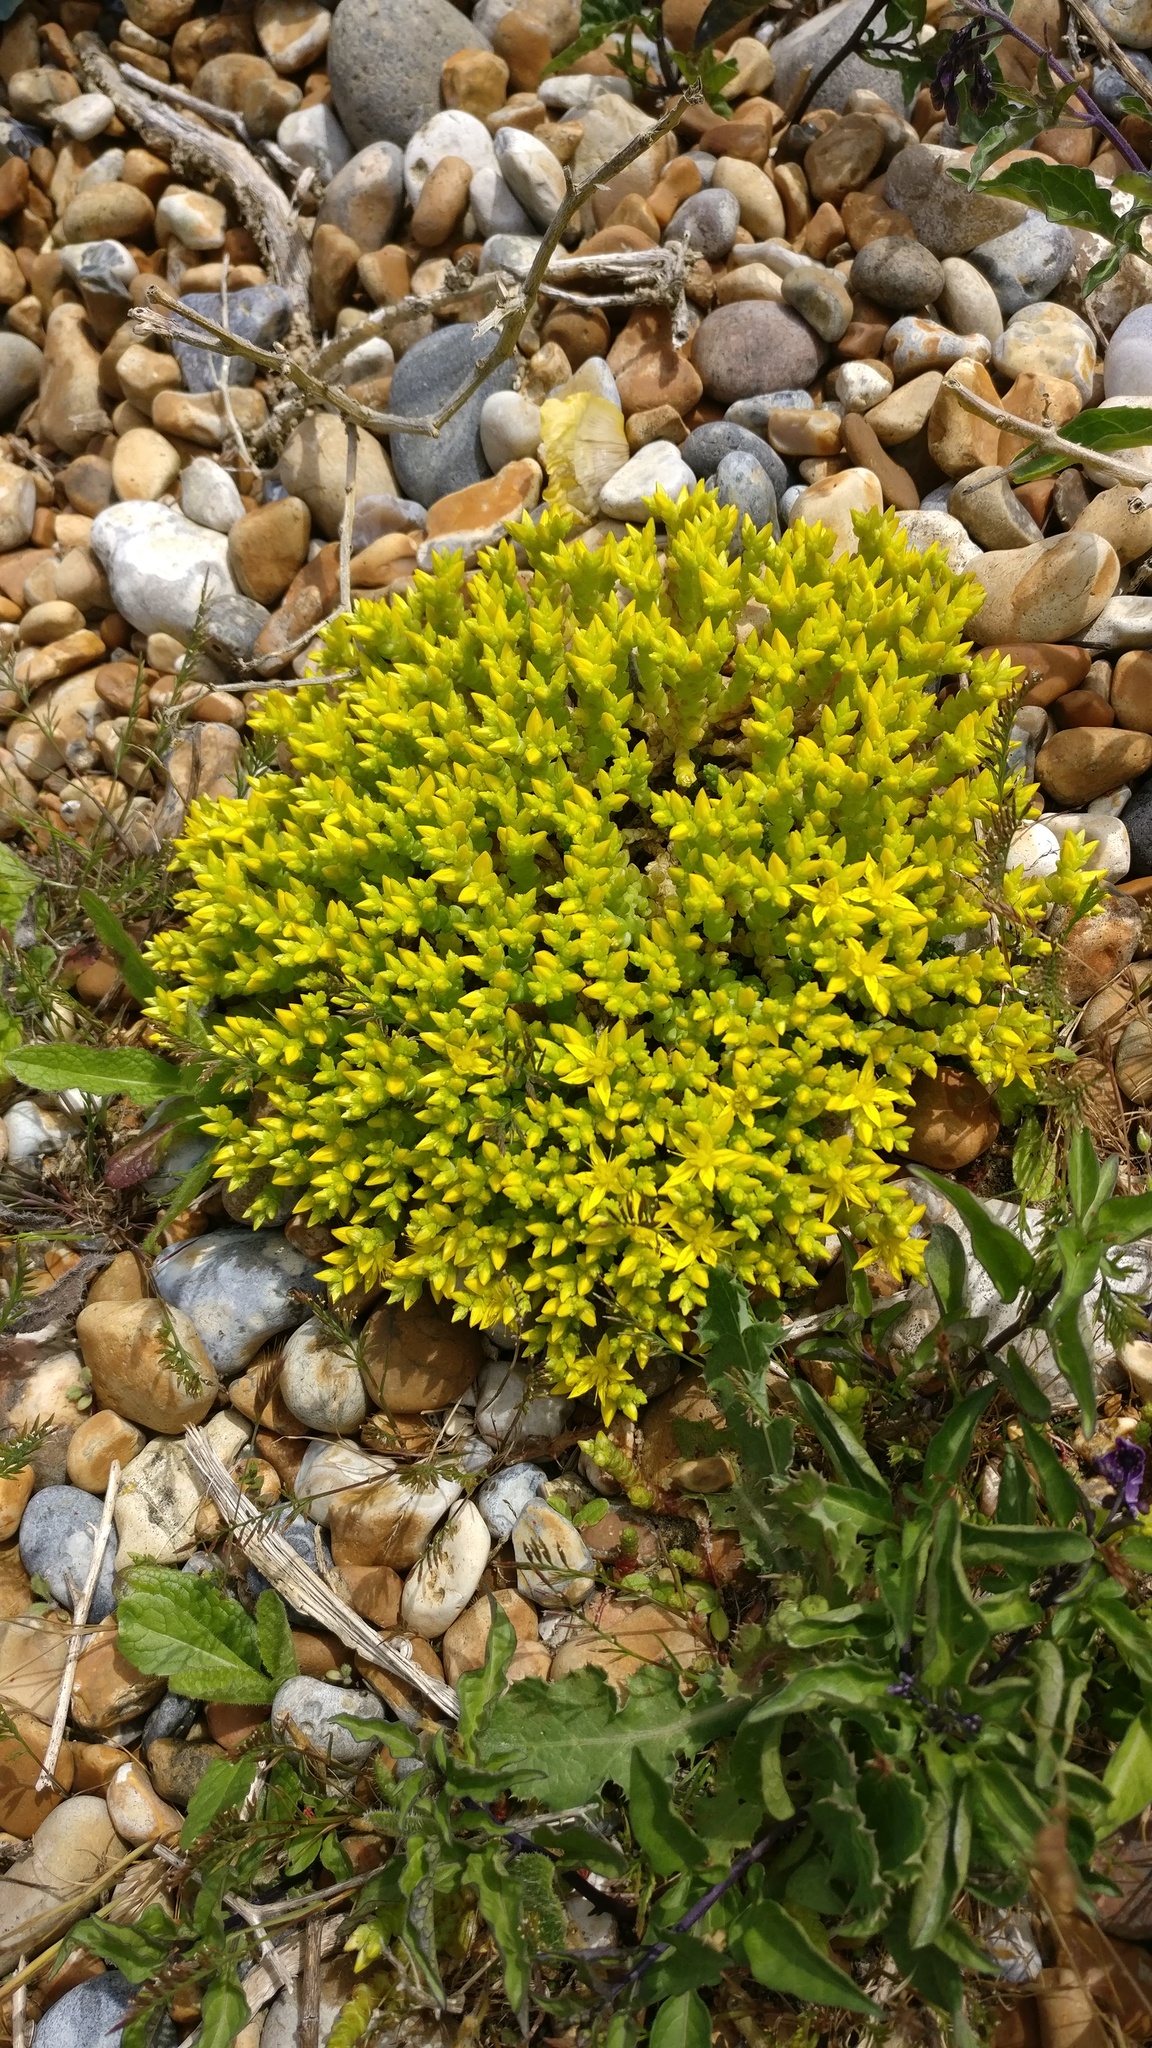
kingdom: Plantae
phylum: Tracheophyta
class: Magnoliopsida
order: Saxifragales
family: Crassulaceae
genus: Sedum
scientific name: Sedum acre
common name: Biting stonecrop
